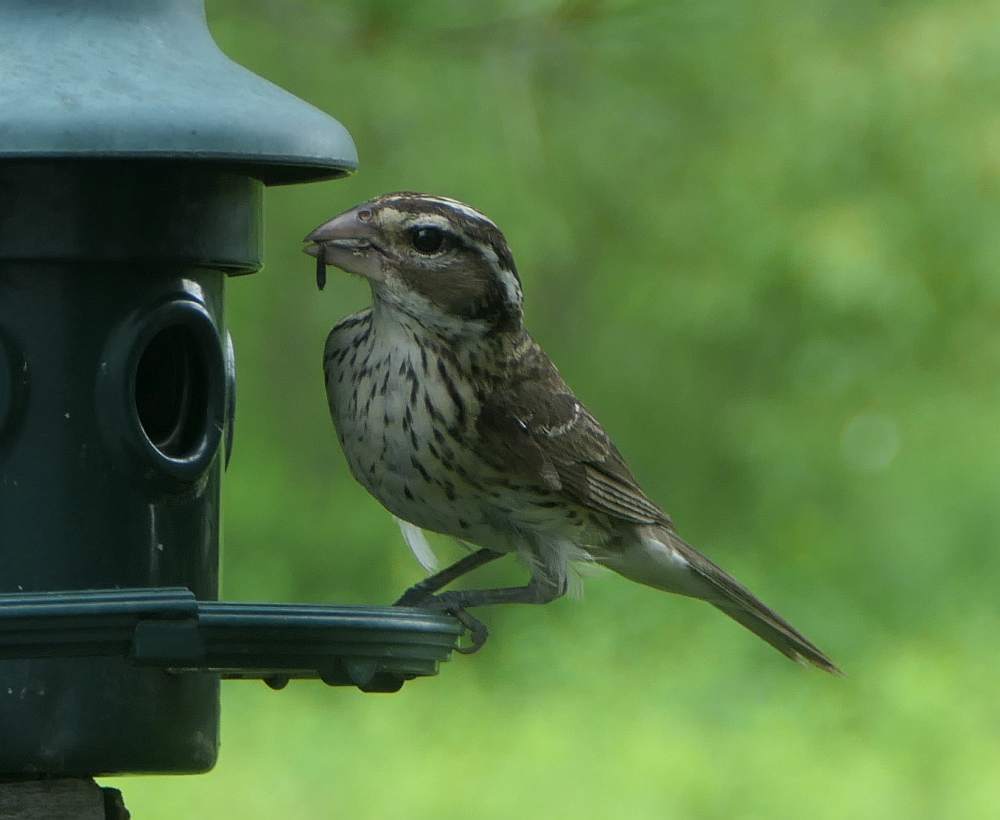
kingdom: Animalia
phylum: Chordata
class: Aves
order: Passeriformes
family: Cardinalidae
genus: Pheucticus
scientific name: Pheucticus ludovicianus
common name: Rose-breasted grosbeak
